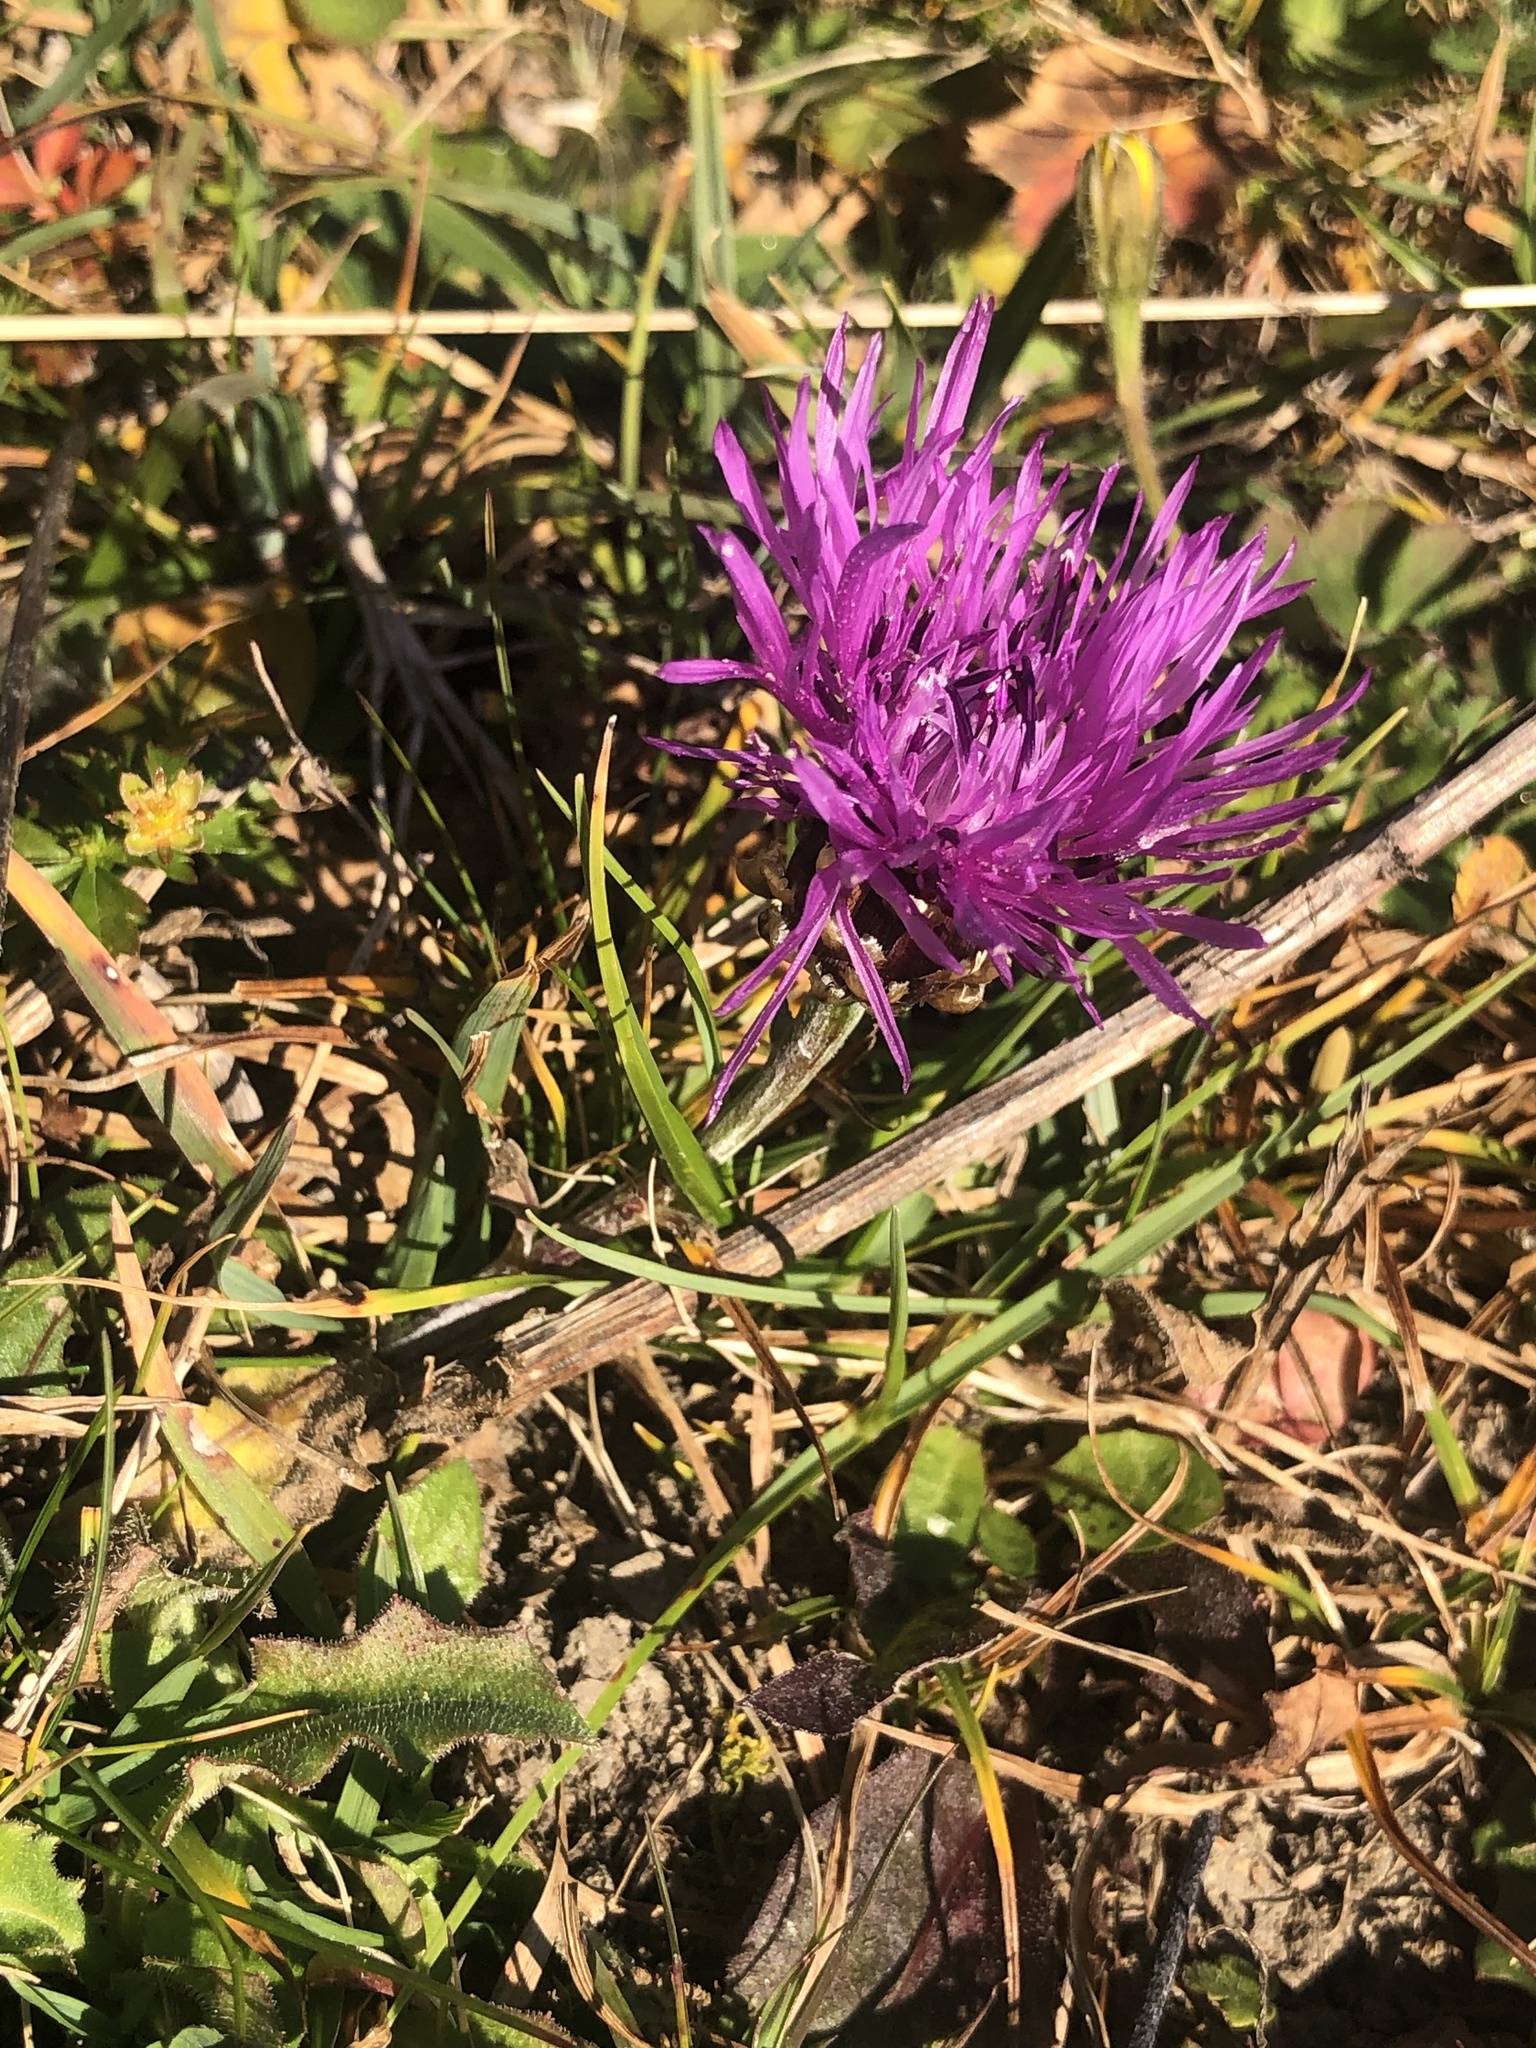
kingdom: Plantae
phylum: Tracheophyta
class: Magnoliopsida
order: Asterales
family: Asteraceae
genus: Centaurea
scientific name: Centaurea jacea
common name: Brown knapweed
